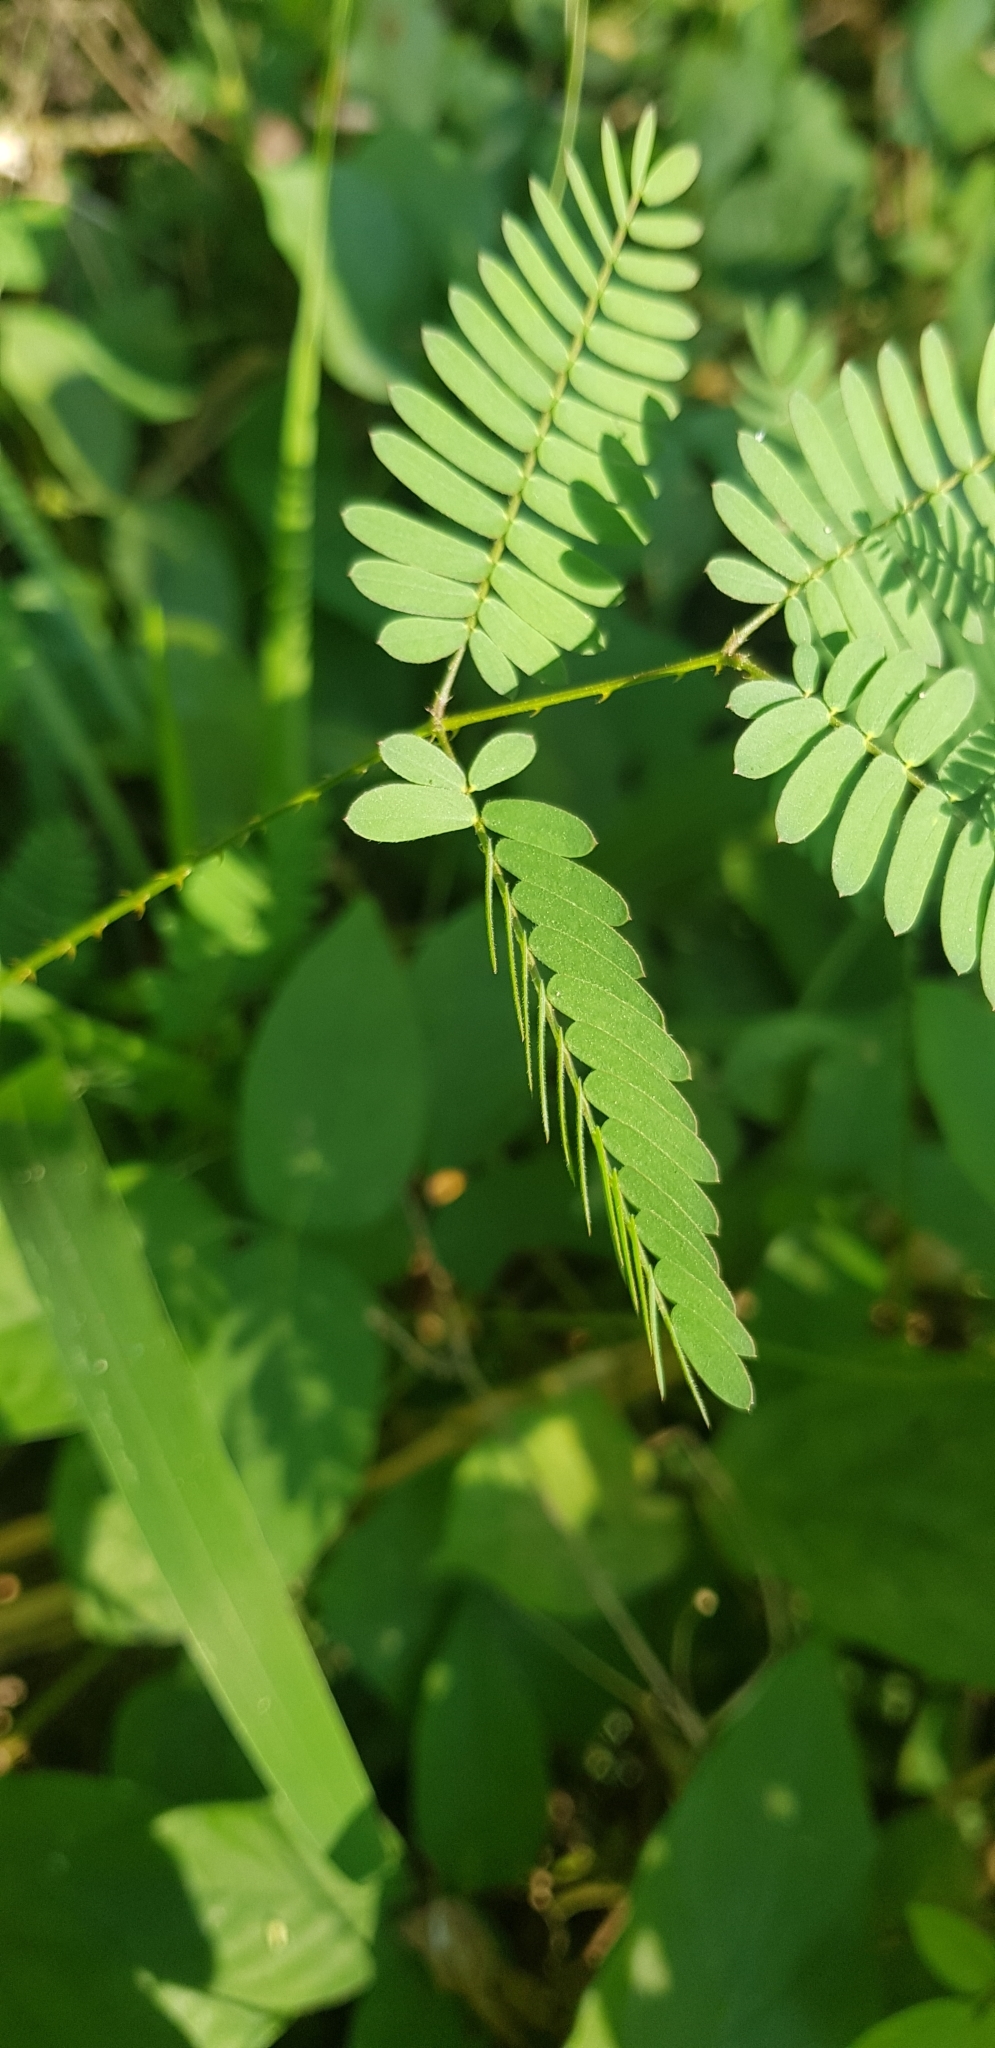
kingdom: Plantae
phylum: Tracheophyta
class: Magnoliopsida
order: Fabales
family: Fabaceae
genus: Mimosa
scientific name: Mimosa pudica
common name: Sensitive plant
